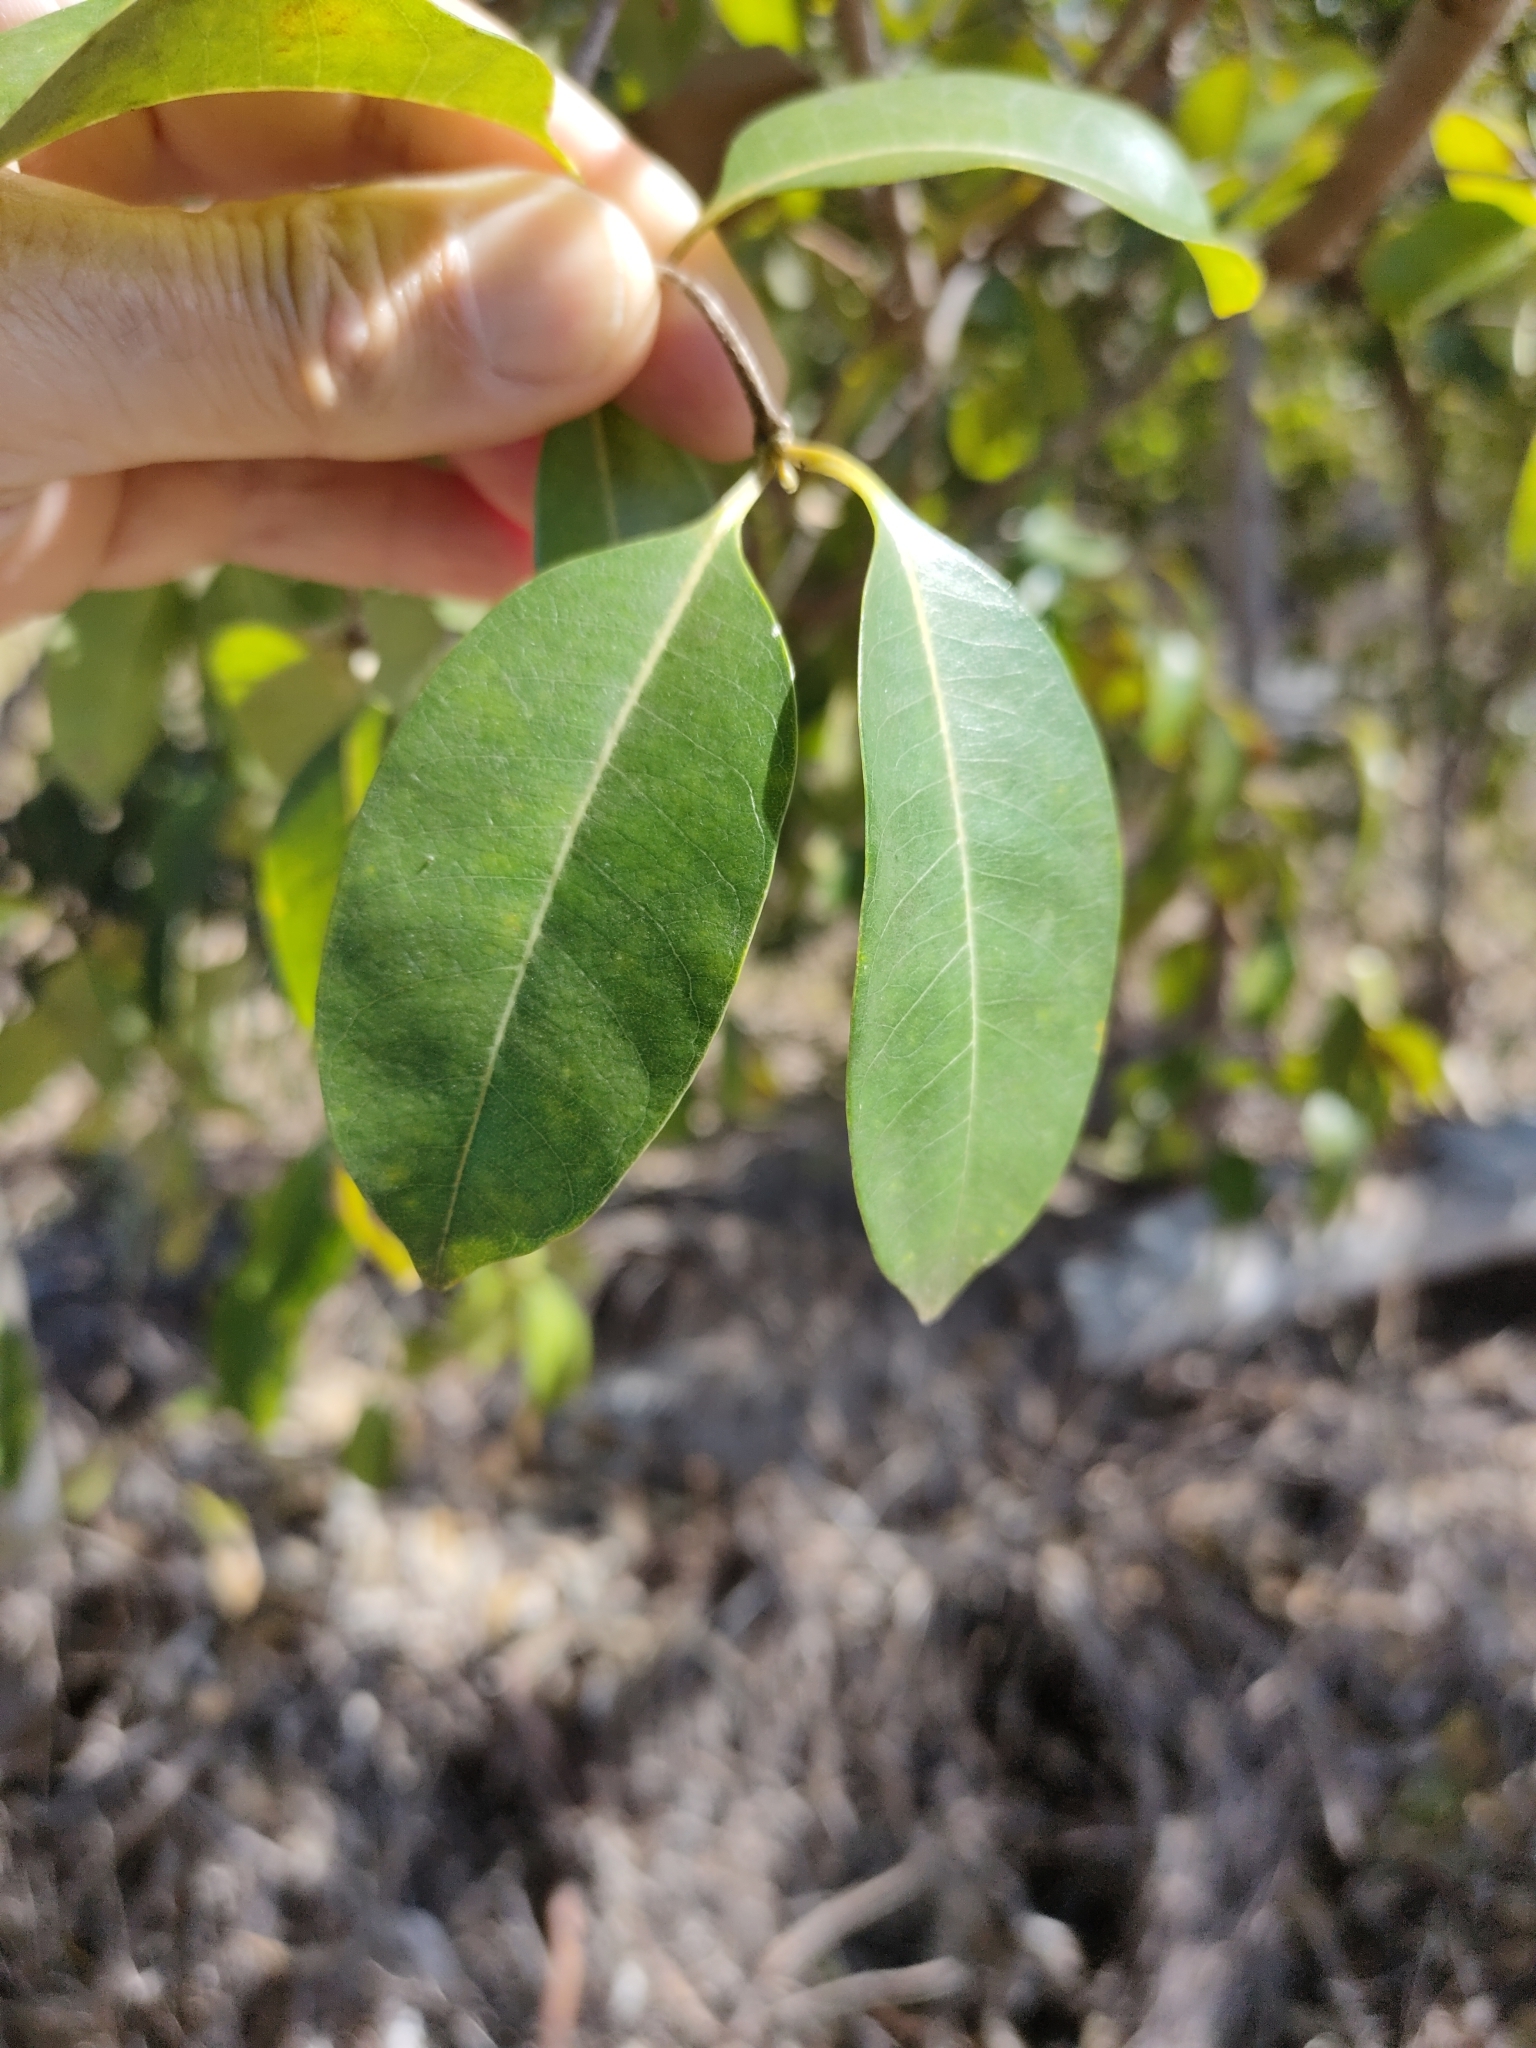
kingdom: Plantae
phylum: Tracheophyta
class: Magnoliopsida
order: Gentianales
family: Apocynaceae
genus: Cryptostegia
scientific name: Cryptostegia grandiflora
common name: Palay rubbervine
